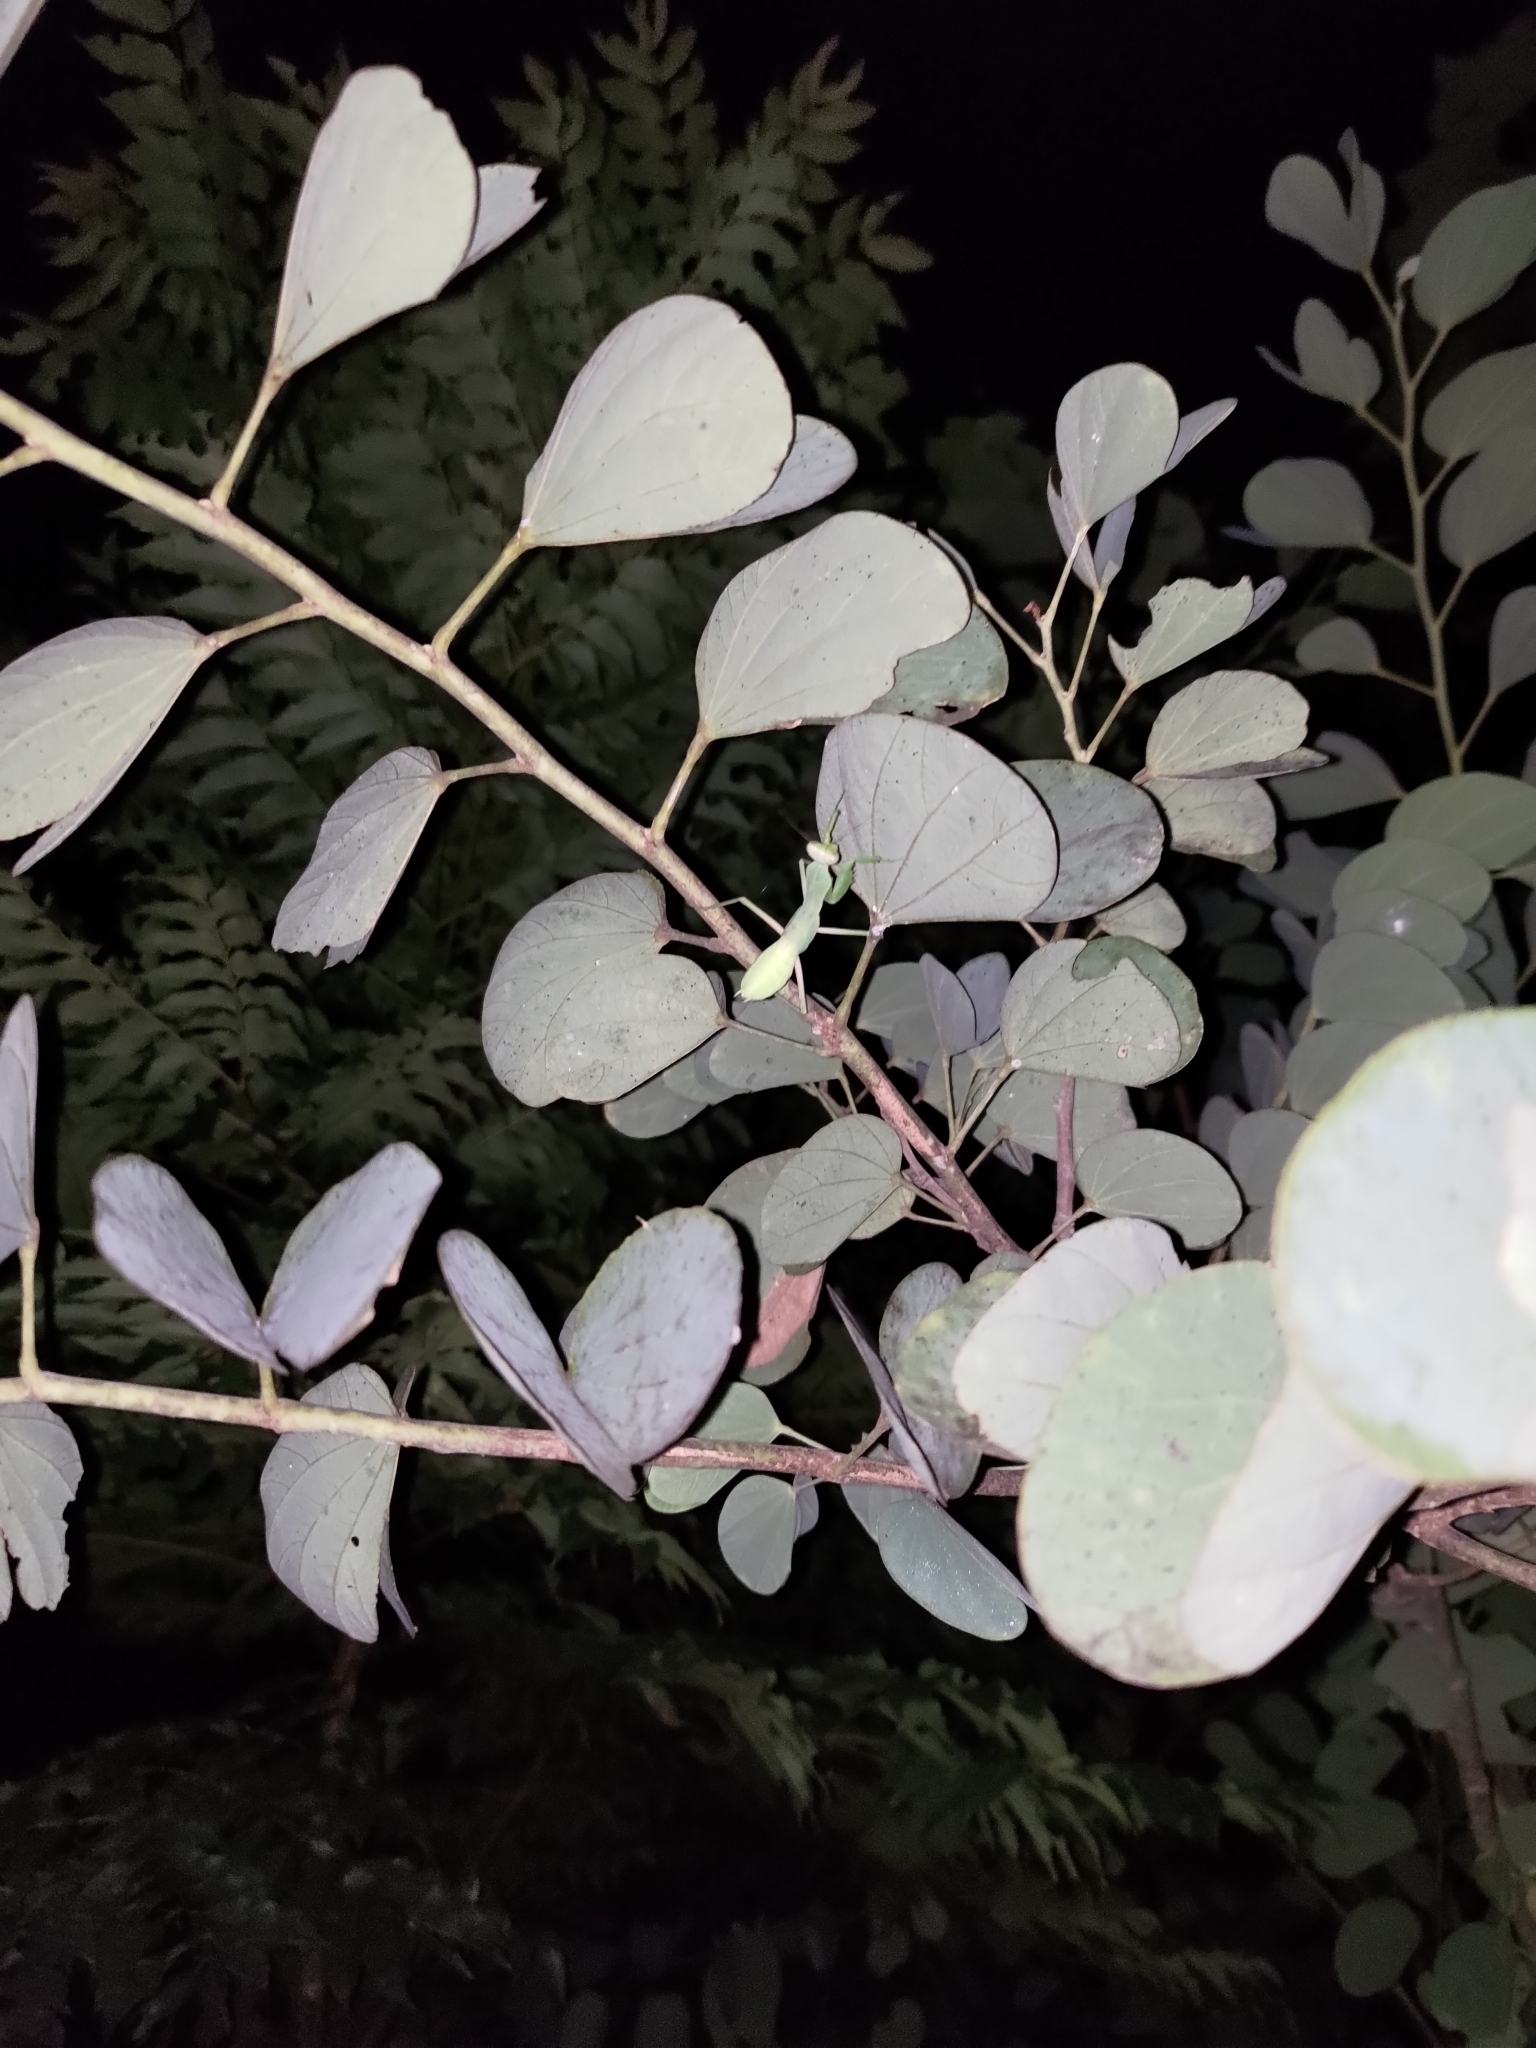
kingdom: Animalia
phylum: Arthropoda
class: Insecta
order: Mantodea
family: Mantidae
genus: Hierodula
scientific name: Hierodula patellifera
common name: Asian mantis
